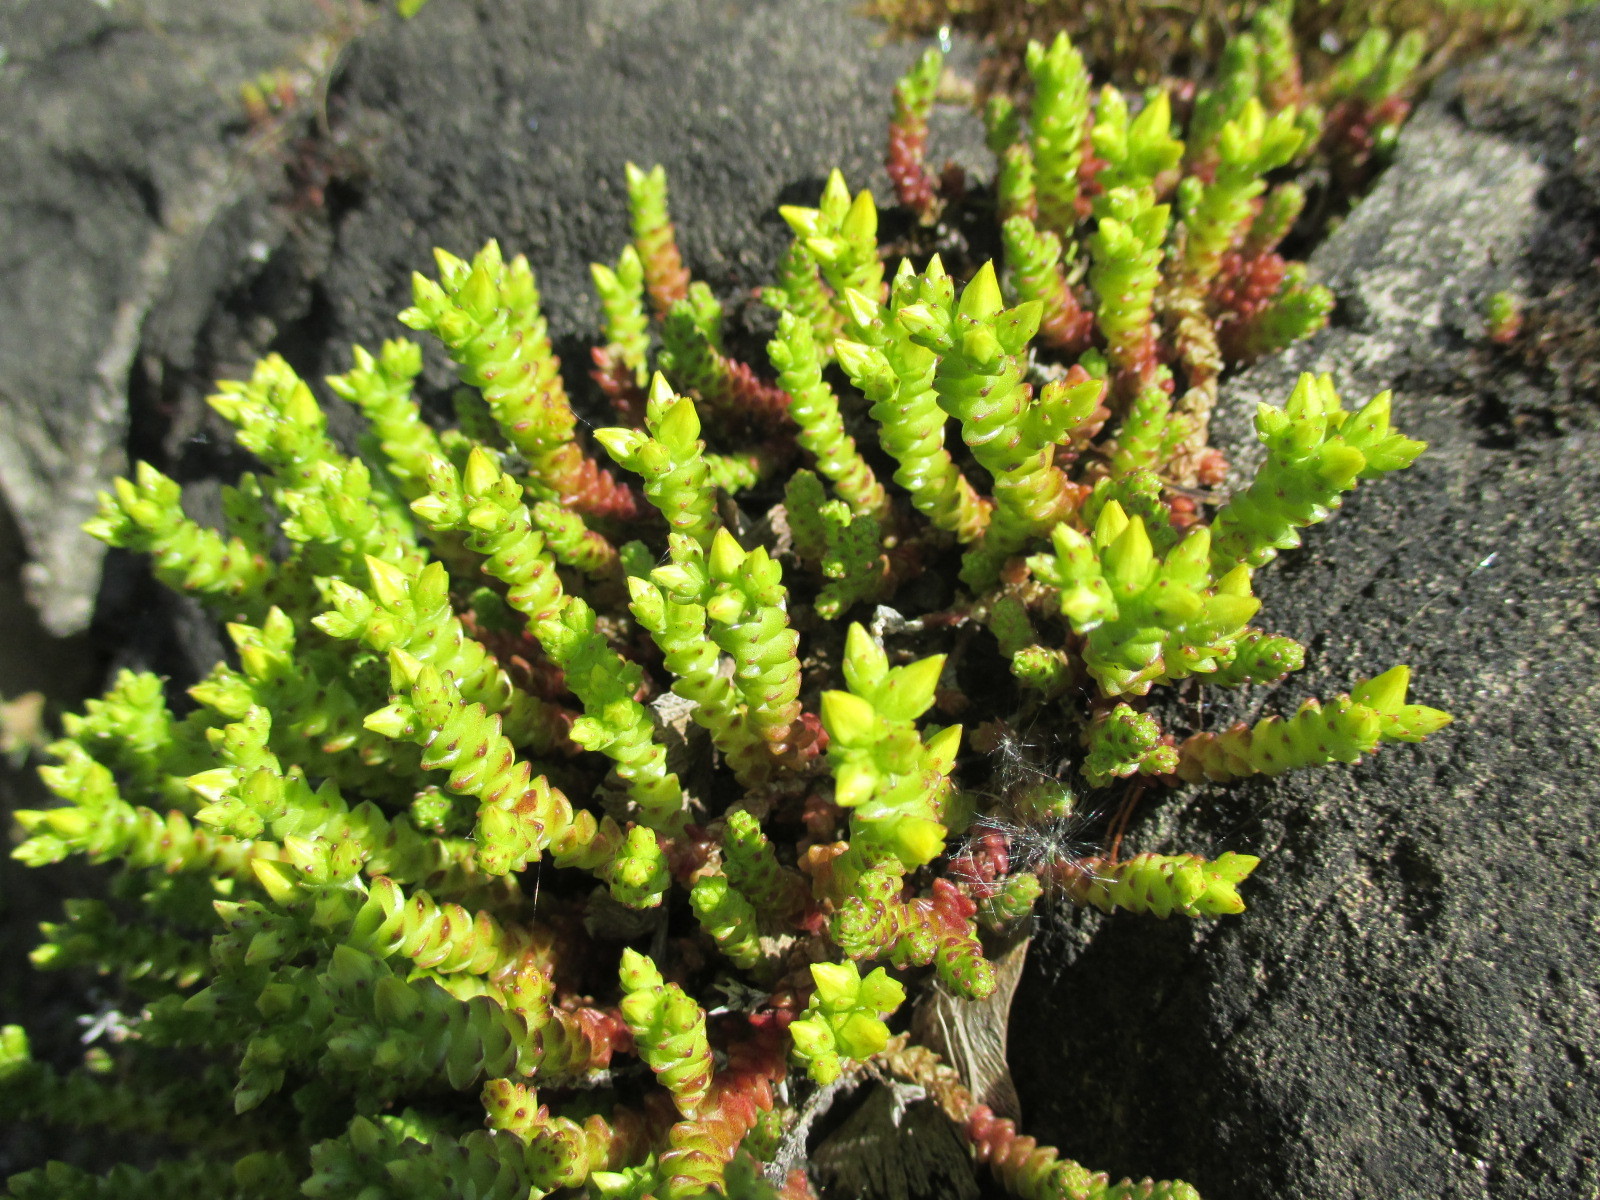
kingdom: Plantae
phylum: Tracheophyta
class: Magnoliopsida
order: Saxifragales
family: Crassulaceae
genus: Sedum
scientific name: Sedum acre
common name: Biting stonecrop
